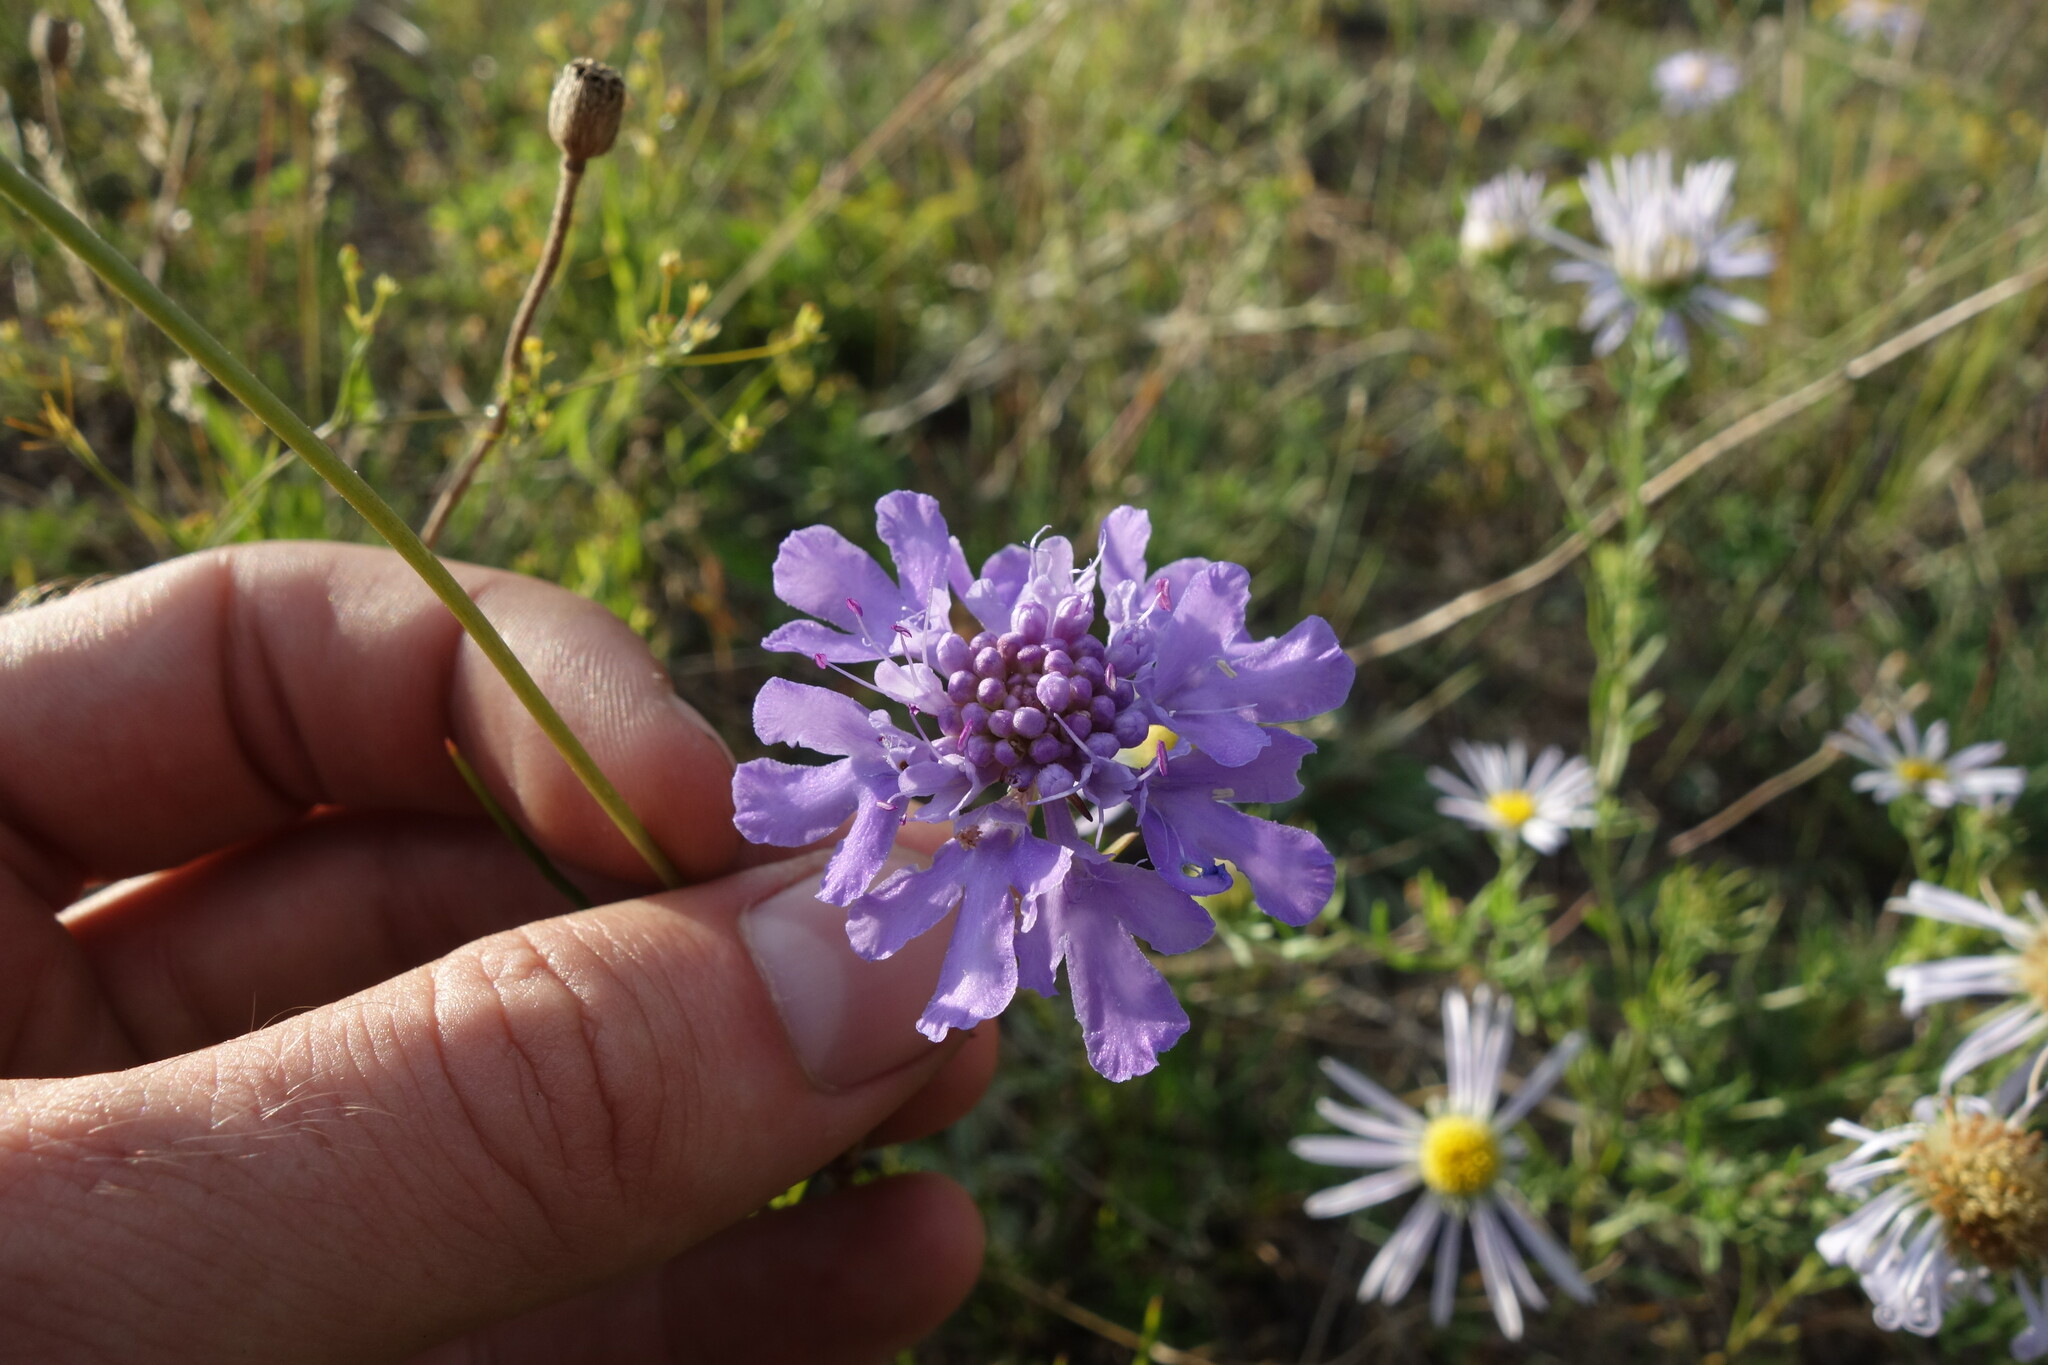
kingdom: Plantae
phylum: Tracheophyta
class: Magnoliopsida
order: Dipsacales
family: Caprifoliaceae
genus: Scabiosa
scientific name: Scabiosa comosa
